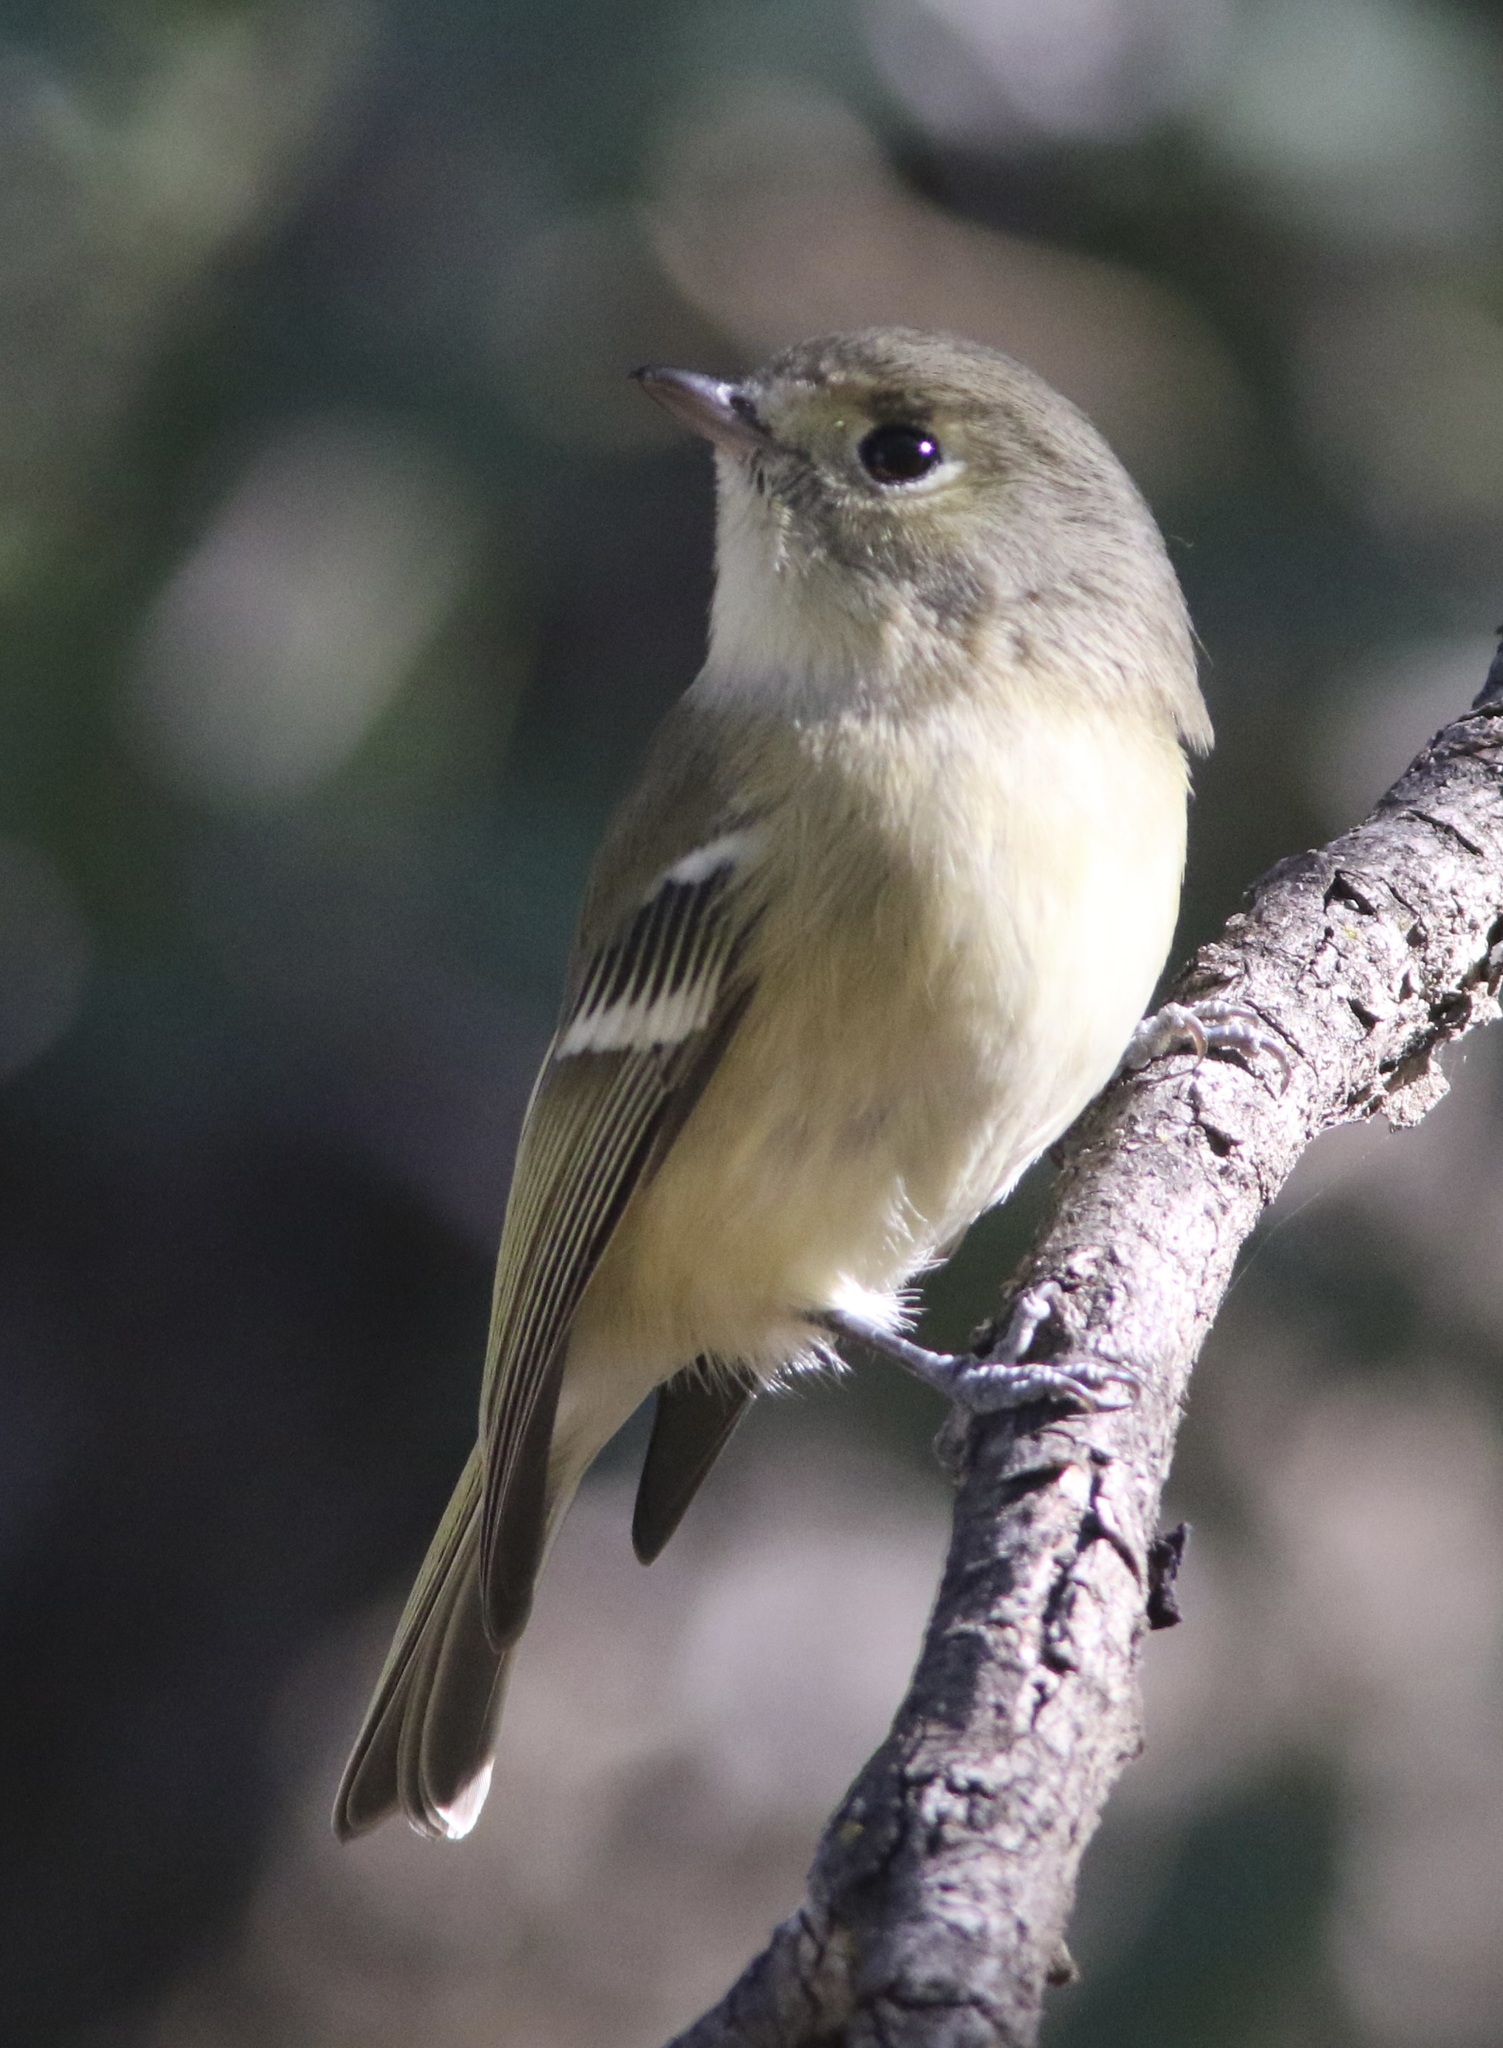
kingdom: Animalia
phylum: Chordata
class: Aves
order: Passeriformes
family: Vireonidae
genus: Vireo
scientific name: Vireo huttoni
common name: Hutton's vireo
